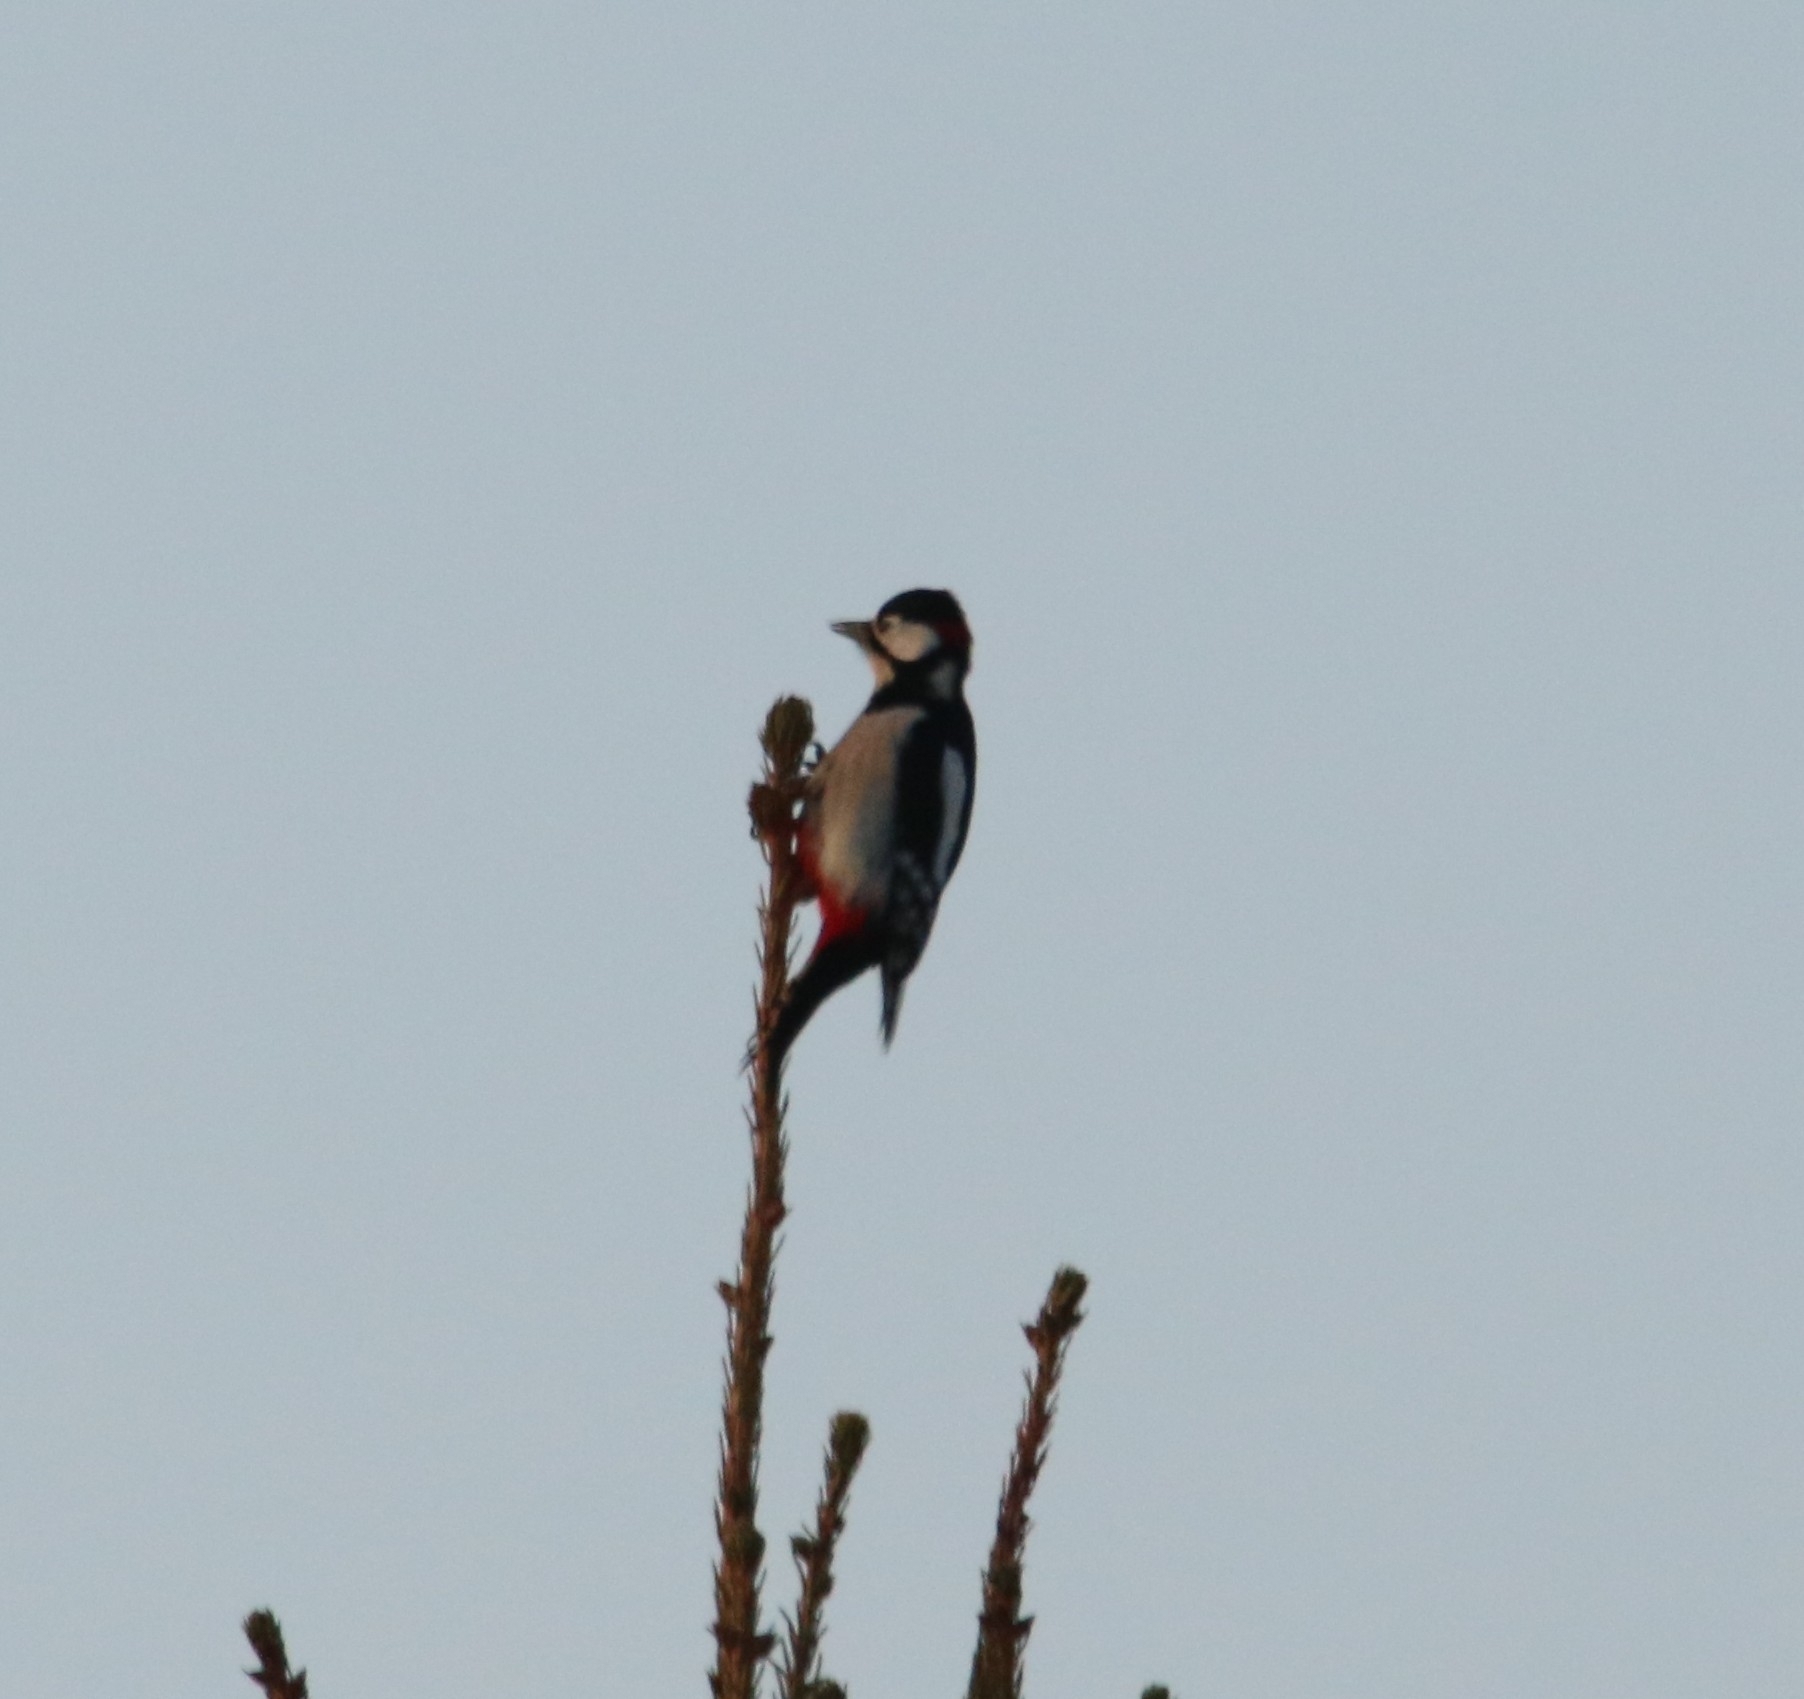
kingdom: Animalia
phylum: Chordata
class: Aves
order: Piciformes
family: Picidae
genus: Dendrocopos
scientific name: Dendrocopos major
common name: Great spotted woodpecker
